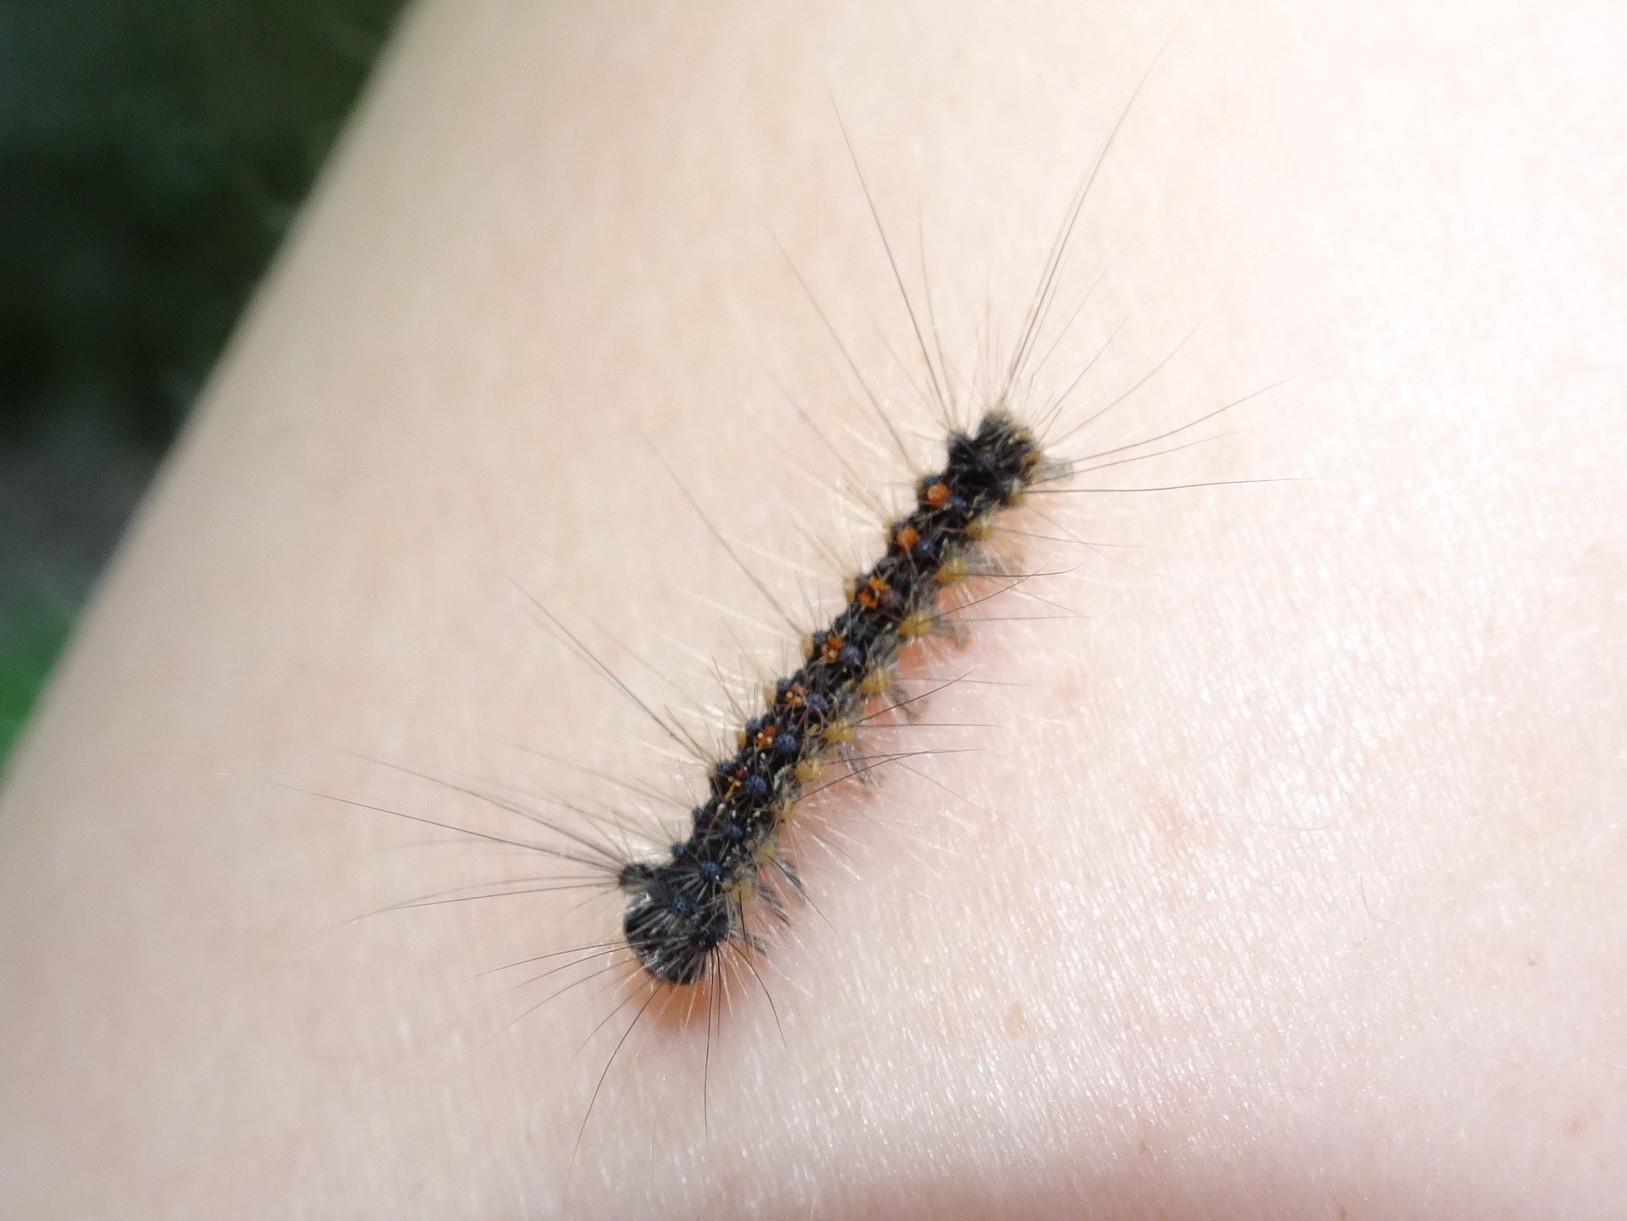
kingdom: Animalia
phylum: Arthropoda
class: Insecta
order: Lepidoptera
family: Erebidae
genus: Lymantria
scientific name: Lymantria dispar
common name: Gypsy moth
